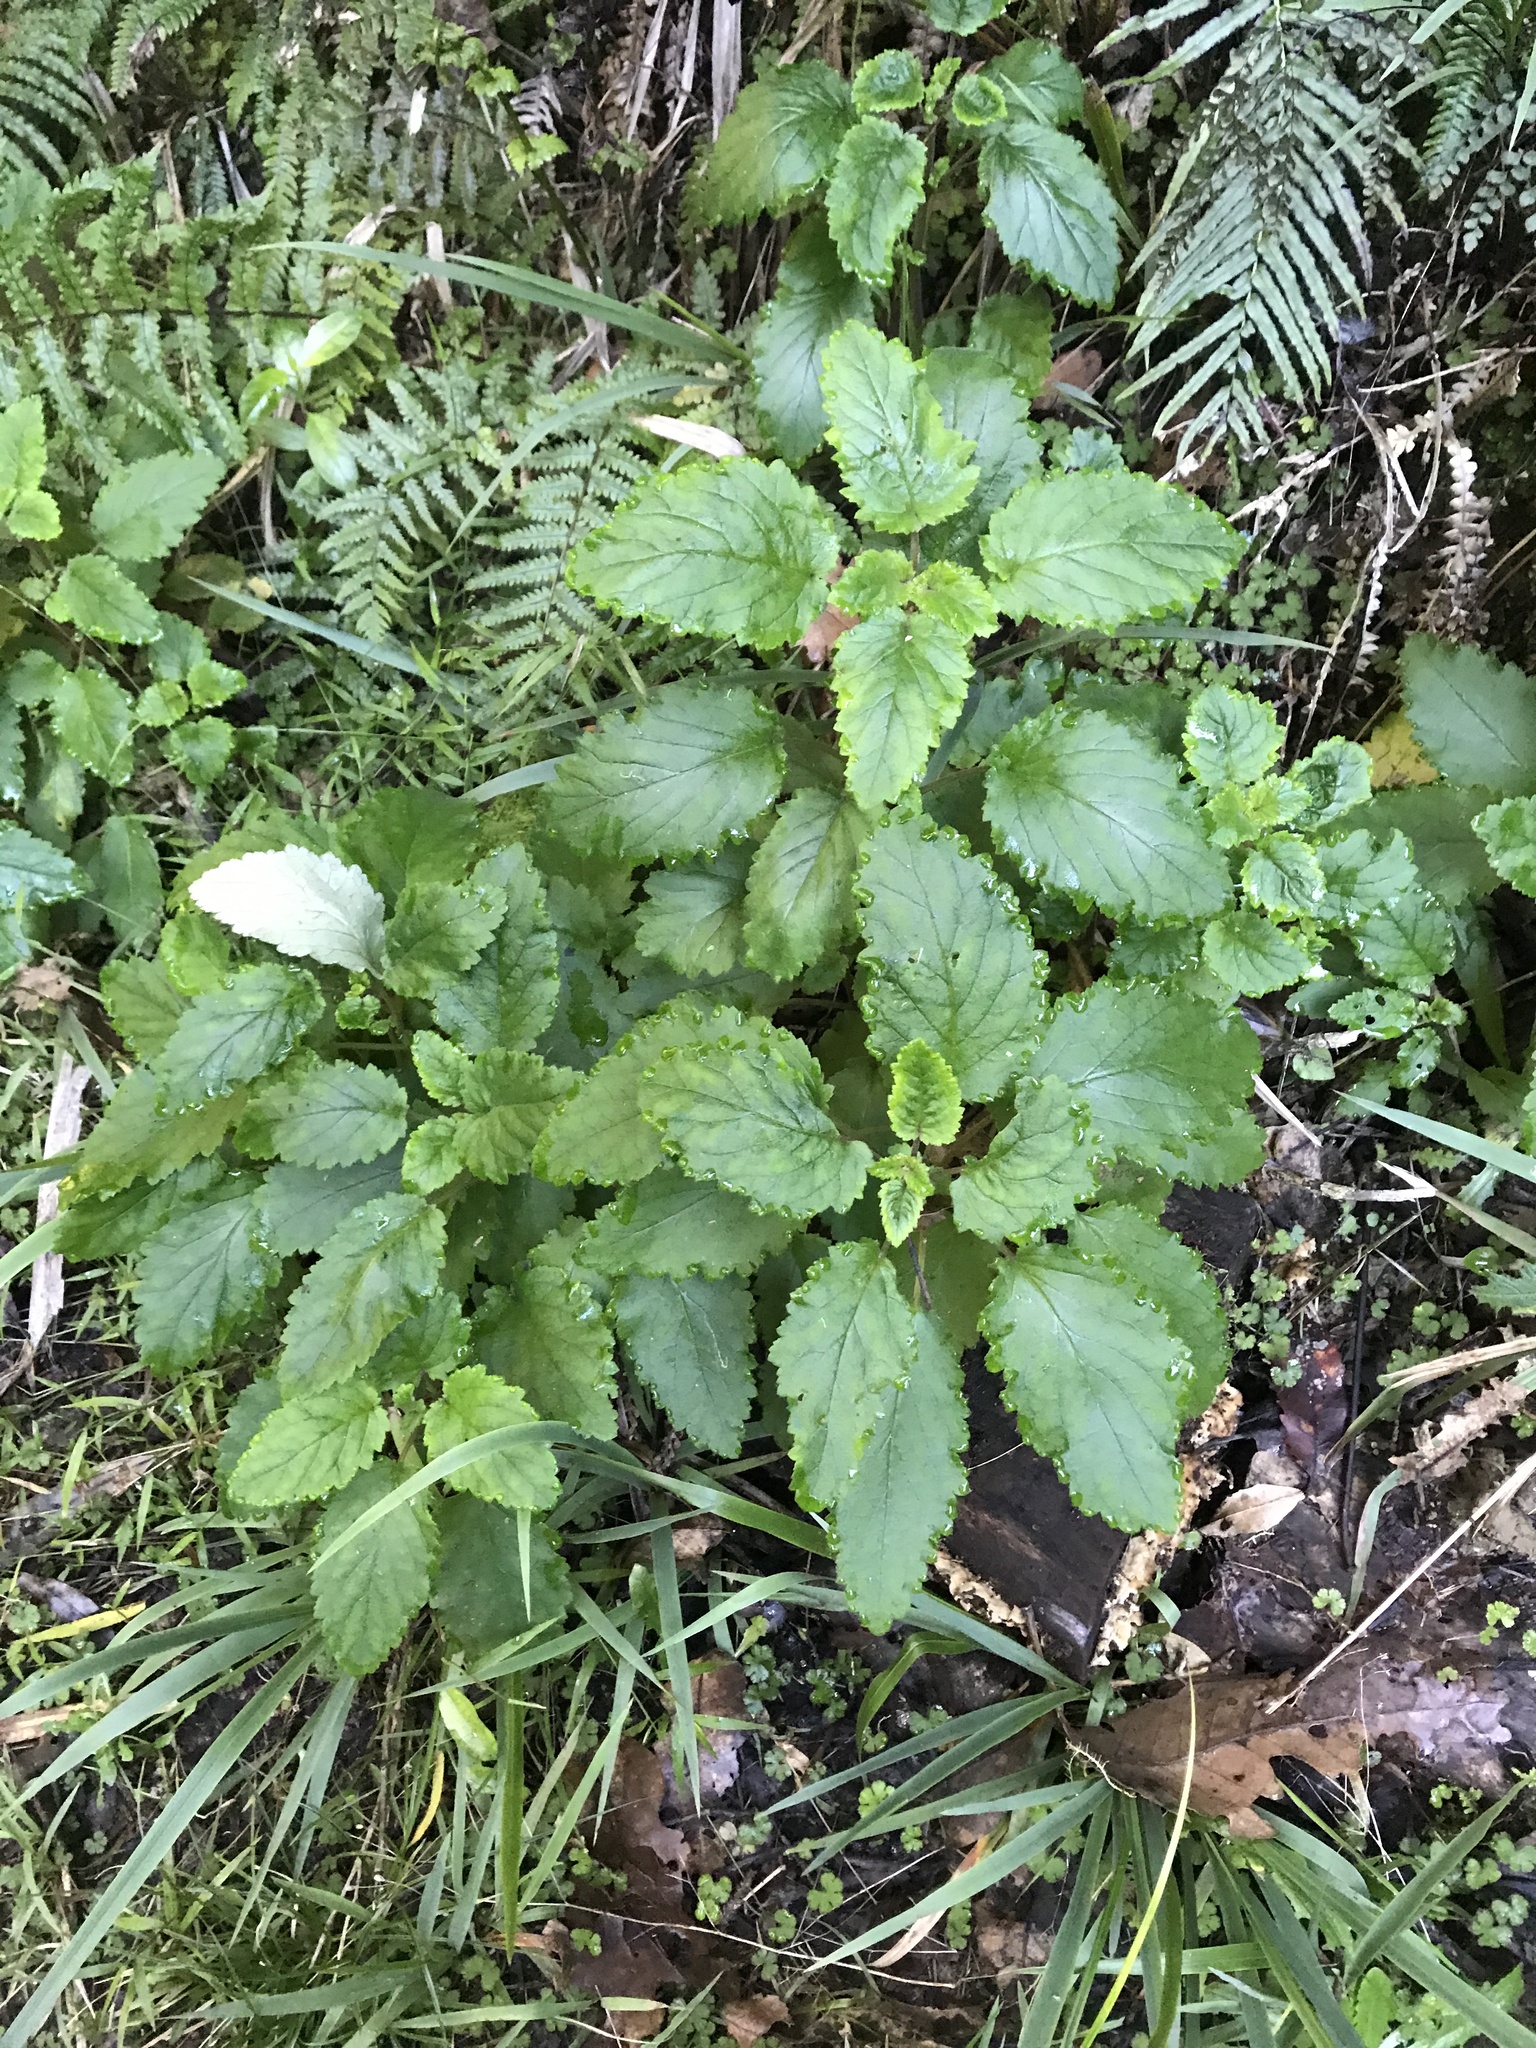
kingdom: Plantae
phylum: Tracheophyta
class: Magnoliopsida
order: Lamiales
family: Calceolariaceae
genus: Jovellana
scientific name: Jovellana sinclairii
